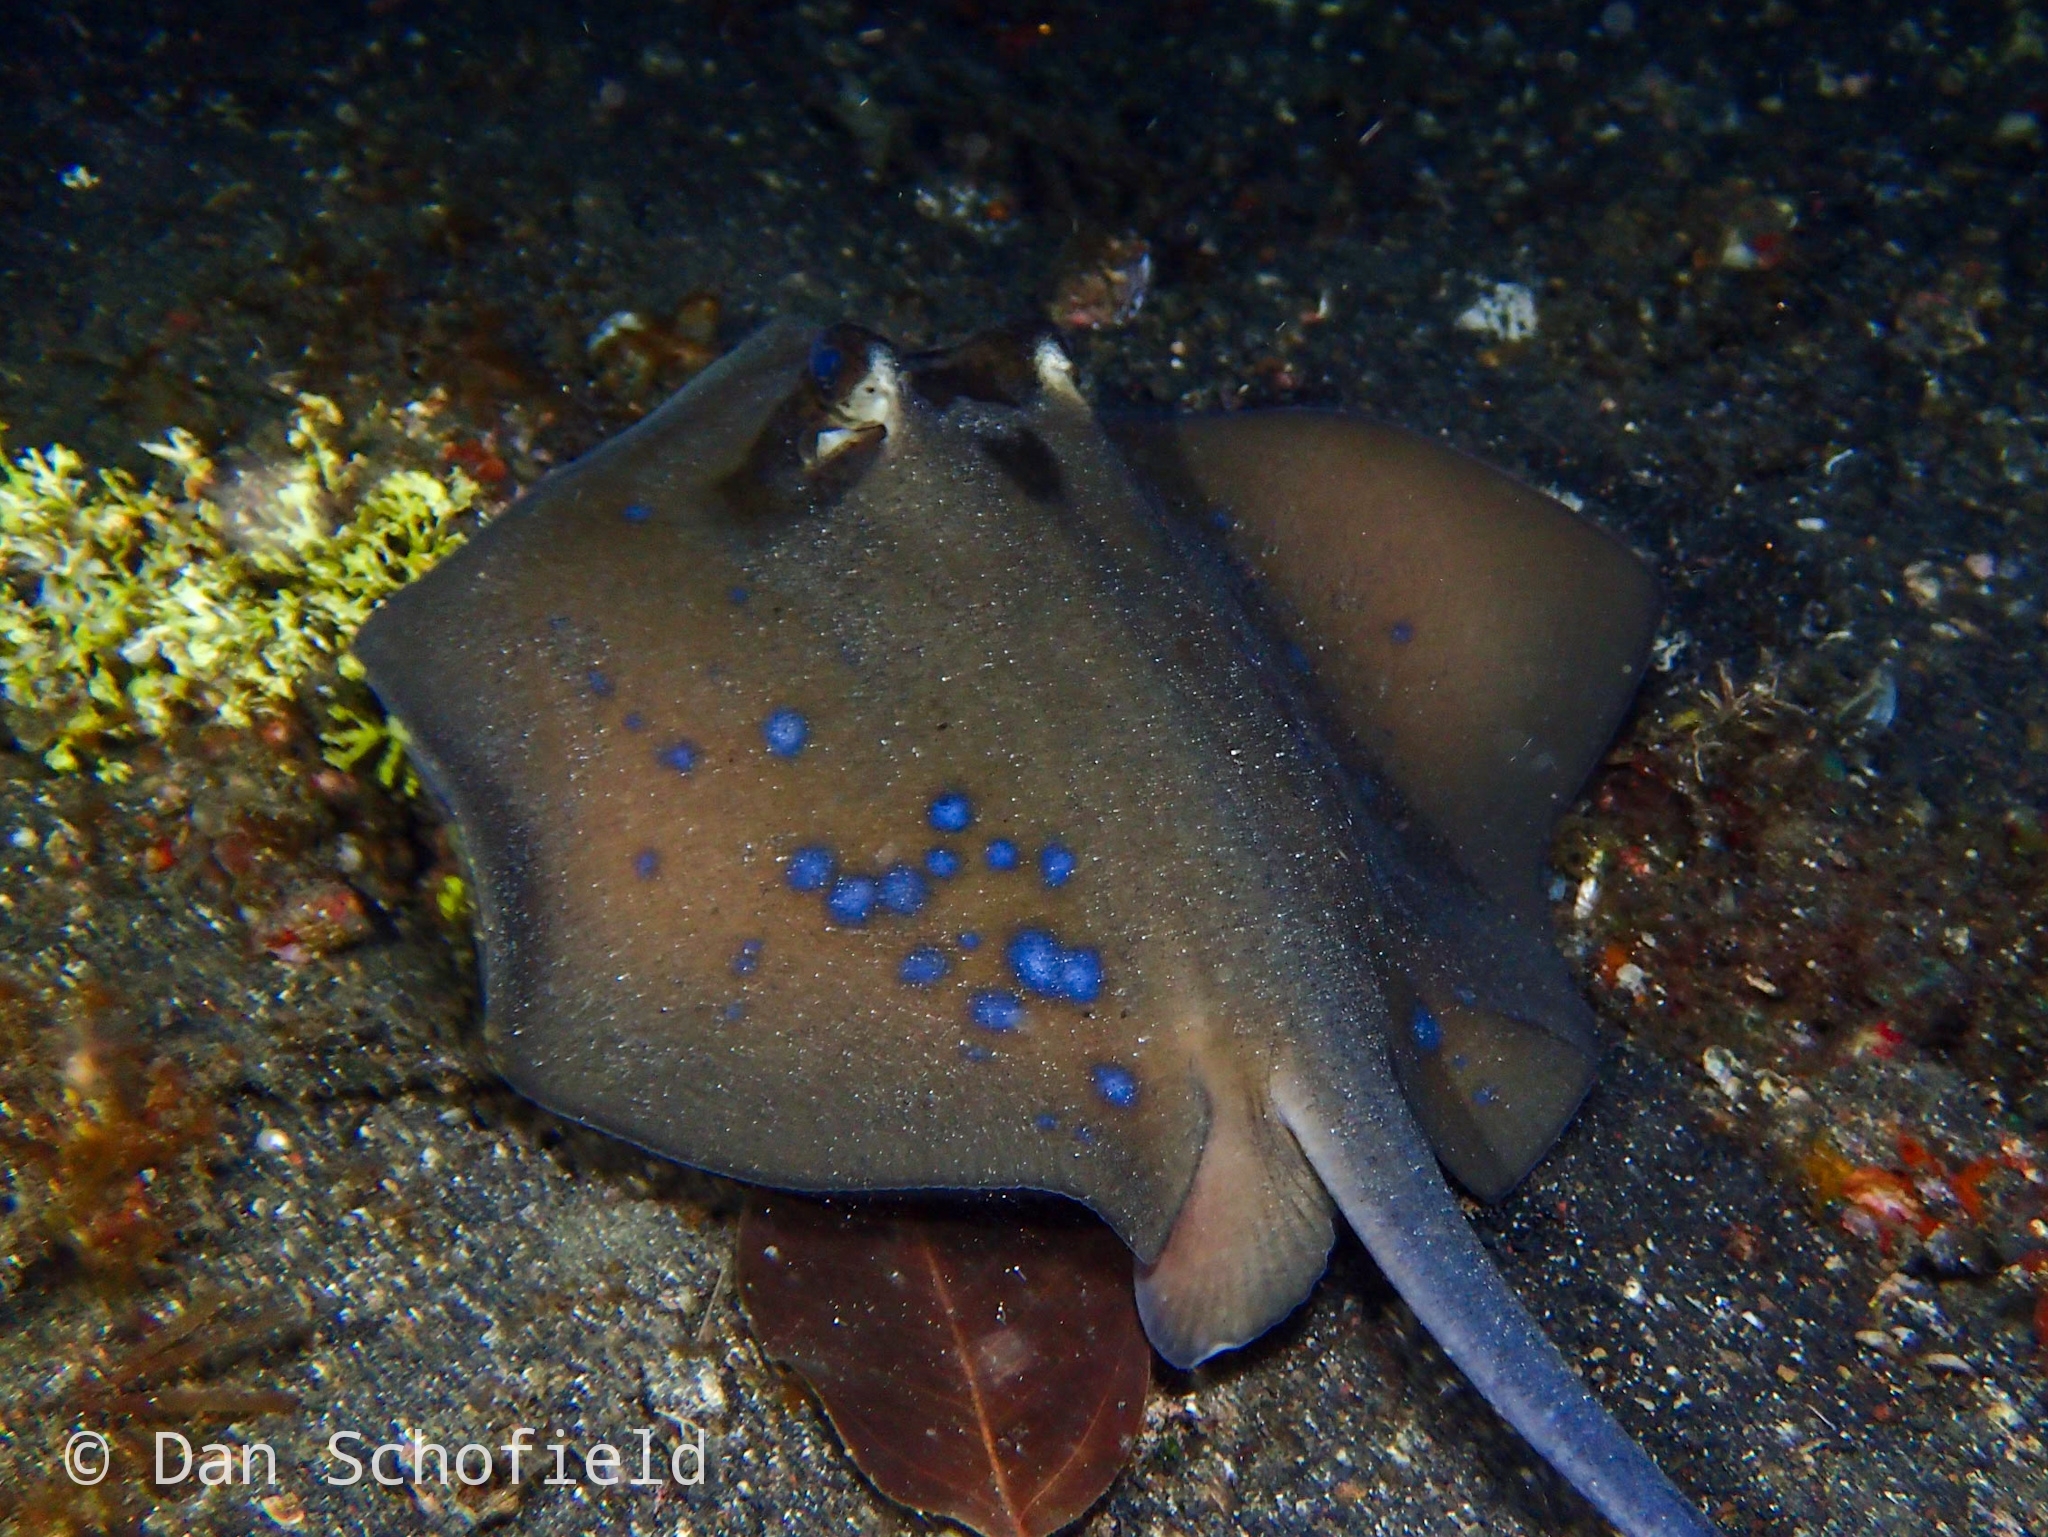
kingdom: Animalia
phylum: Chordata
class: Elasmobranchii
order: Myliobatiformes
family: Dasyatidae
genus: Neotrygon
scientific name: Neotrygon orientale
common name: Oriental bluespotted maskray
